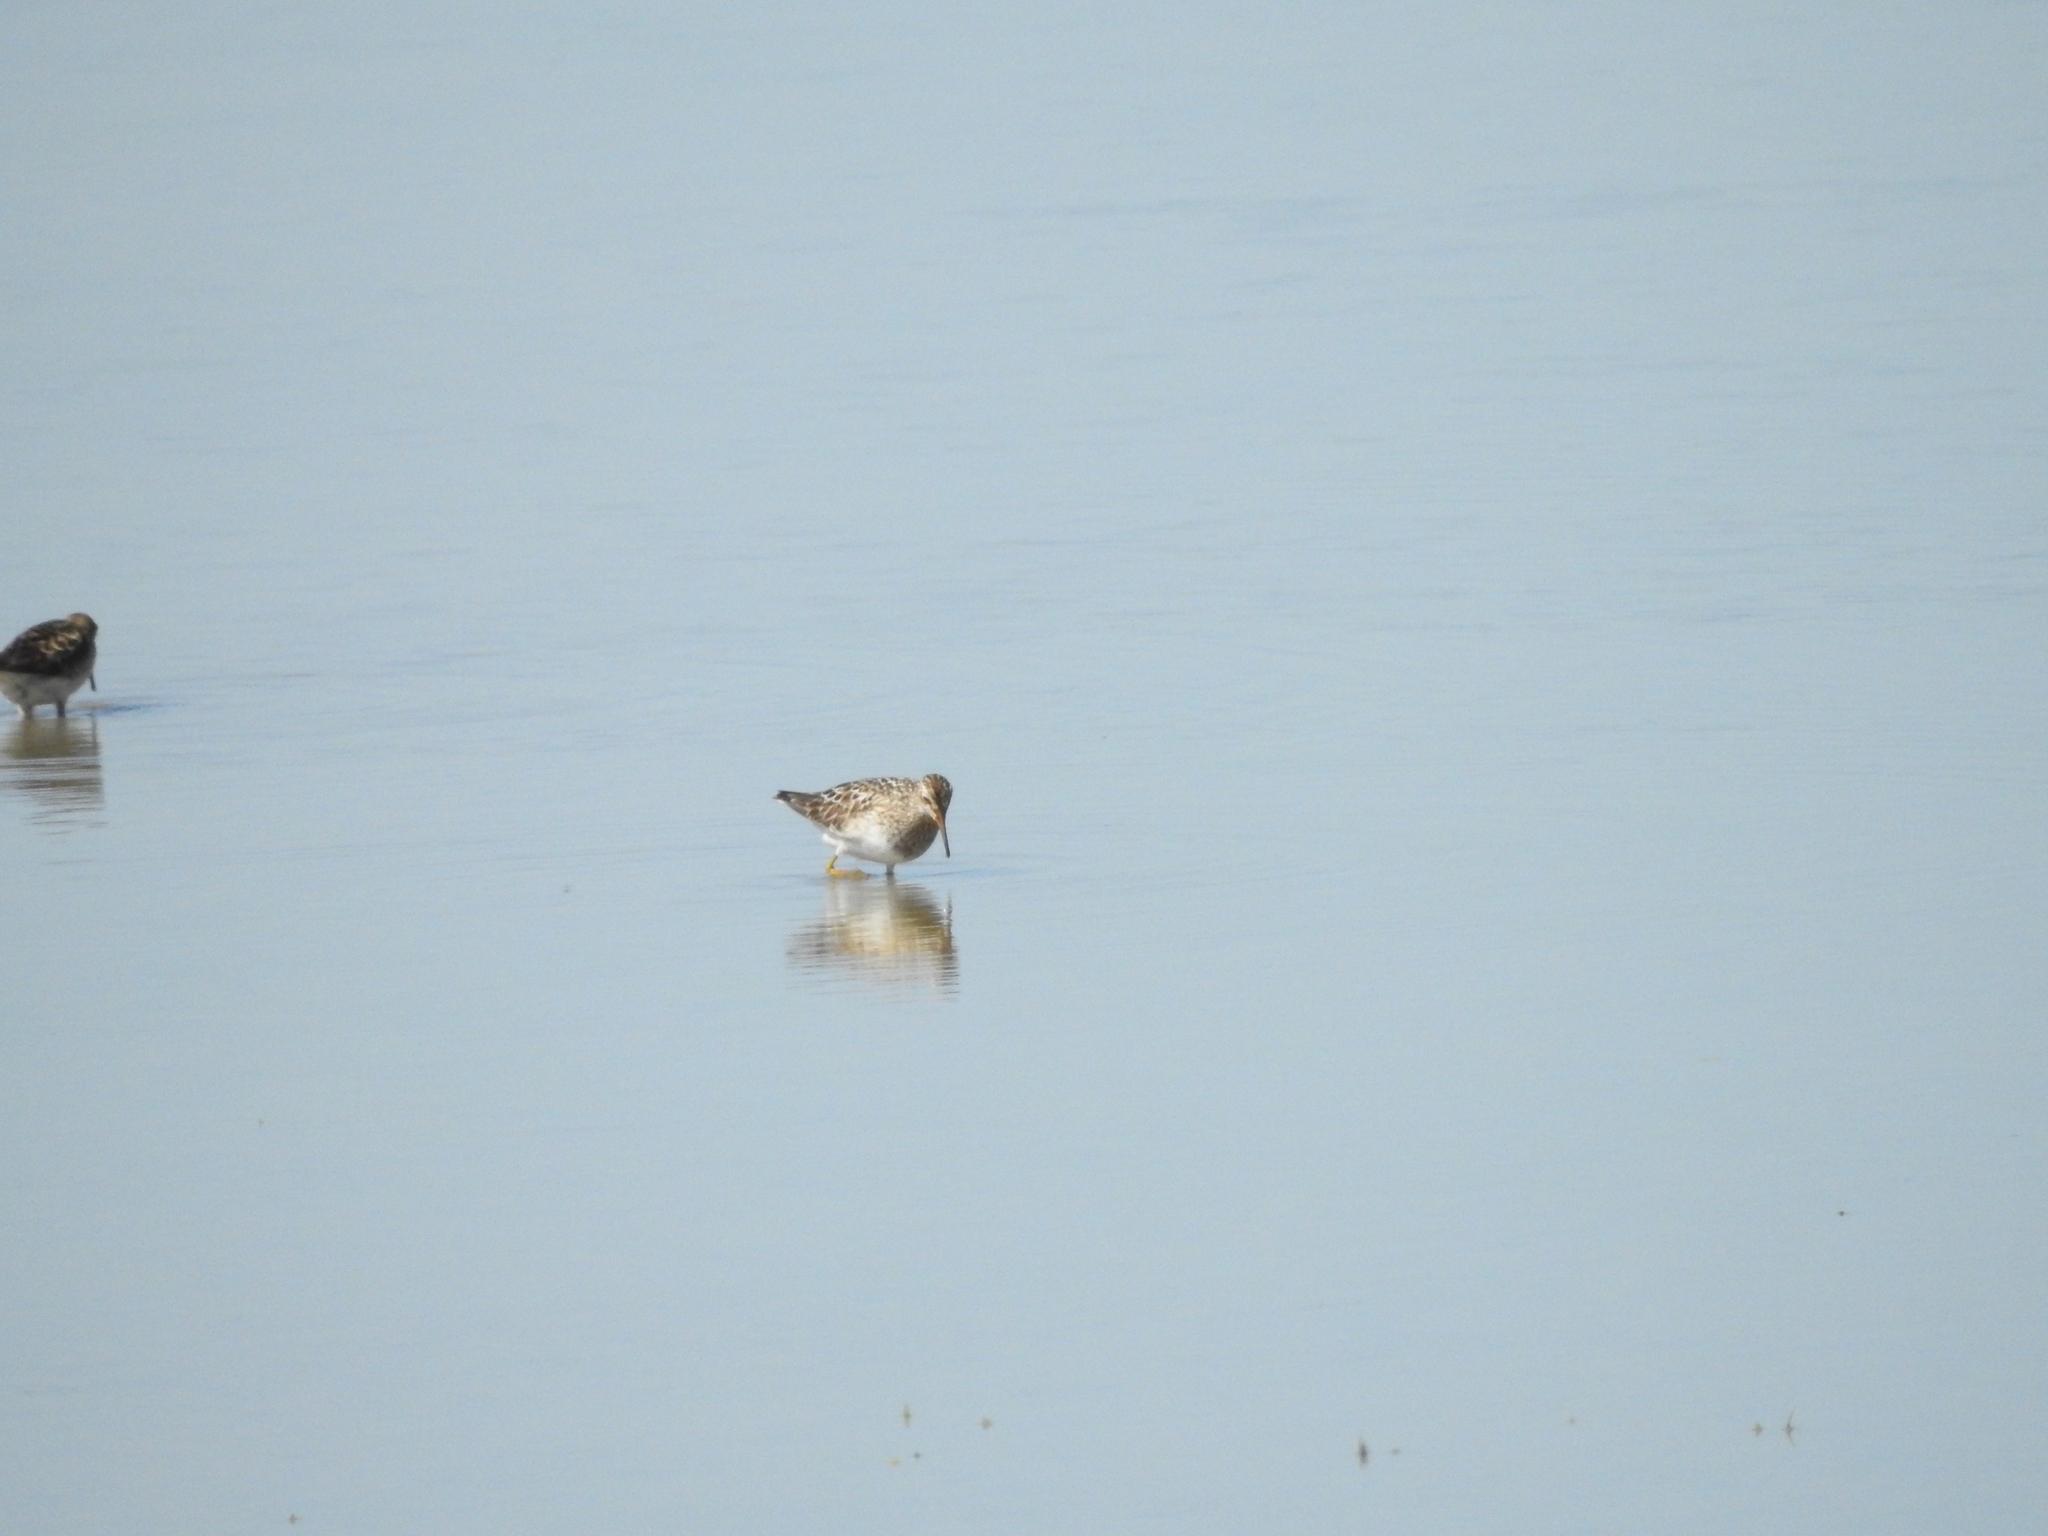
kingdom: Animalia
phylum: Chordata
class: Aves
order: Charadriiformes
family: Scolopacidae
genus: Calidris
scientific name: Calidris melanotos
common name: Pectoral sandpiper
